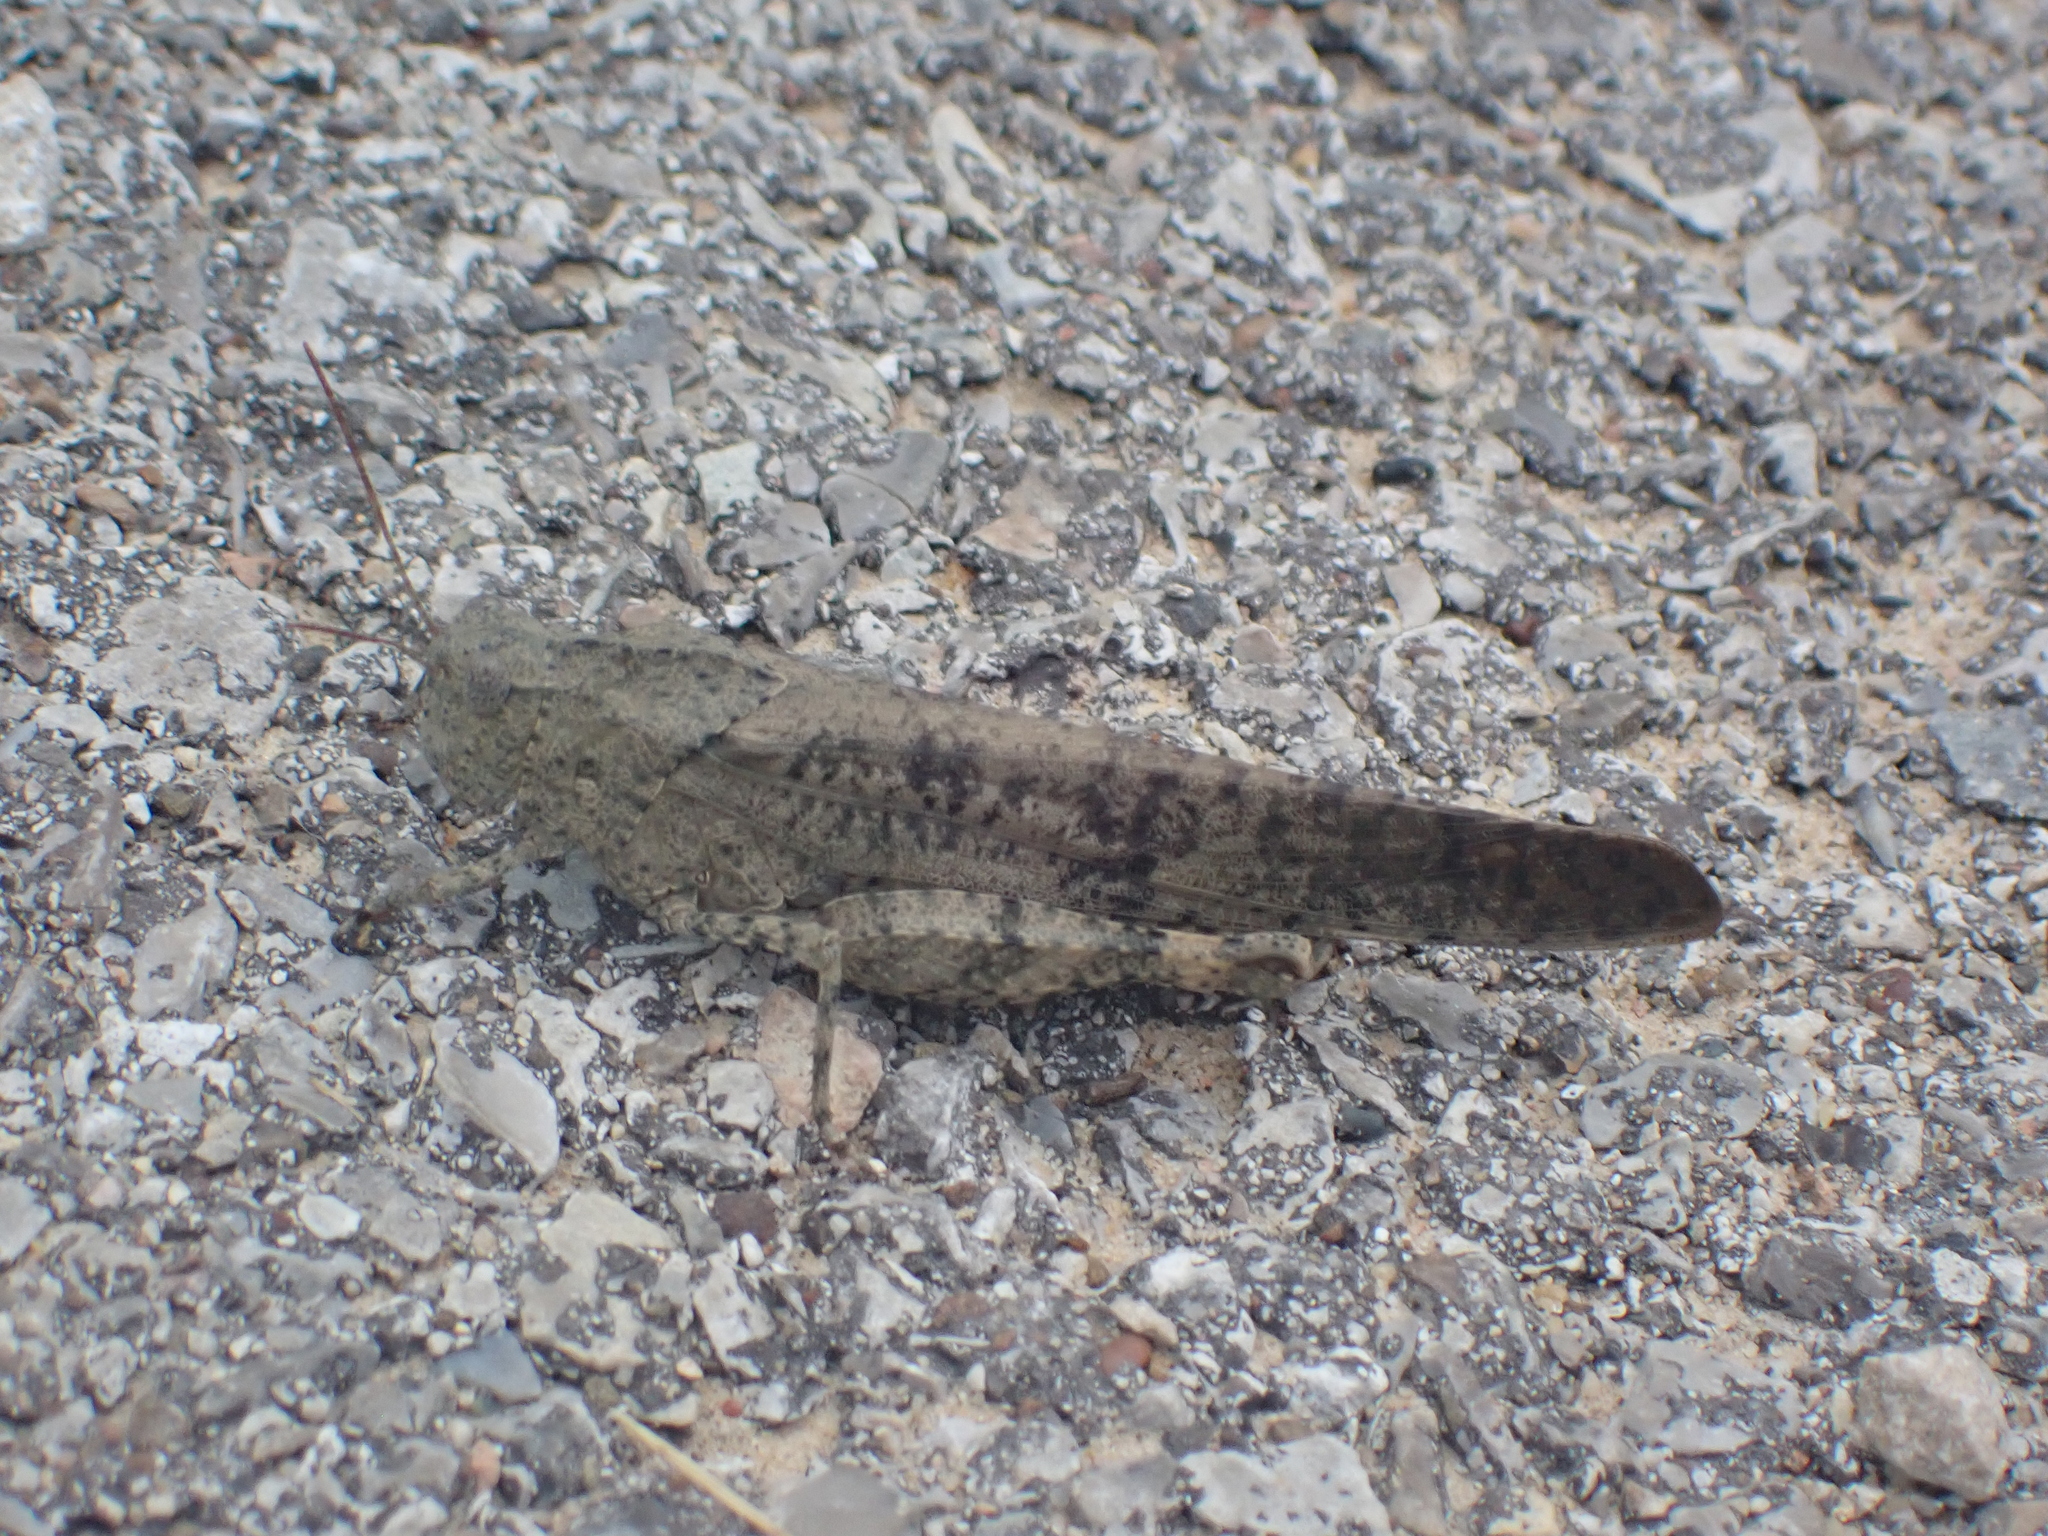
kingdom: Animalia
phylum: Arthropoda
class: Insecta
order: Orthoptera
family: Acrididae
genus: Dissosteira
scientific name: Dissosteira carolina
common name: Carolina grasshopper
